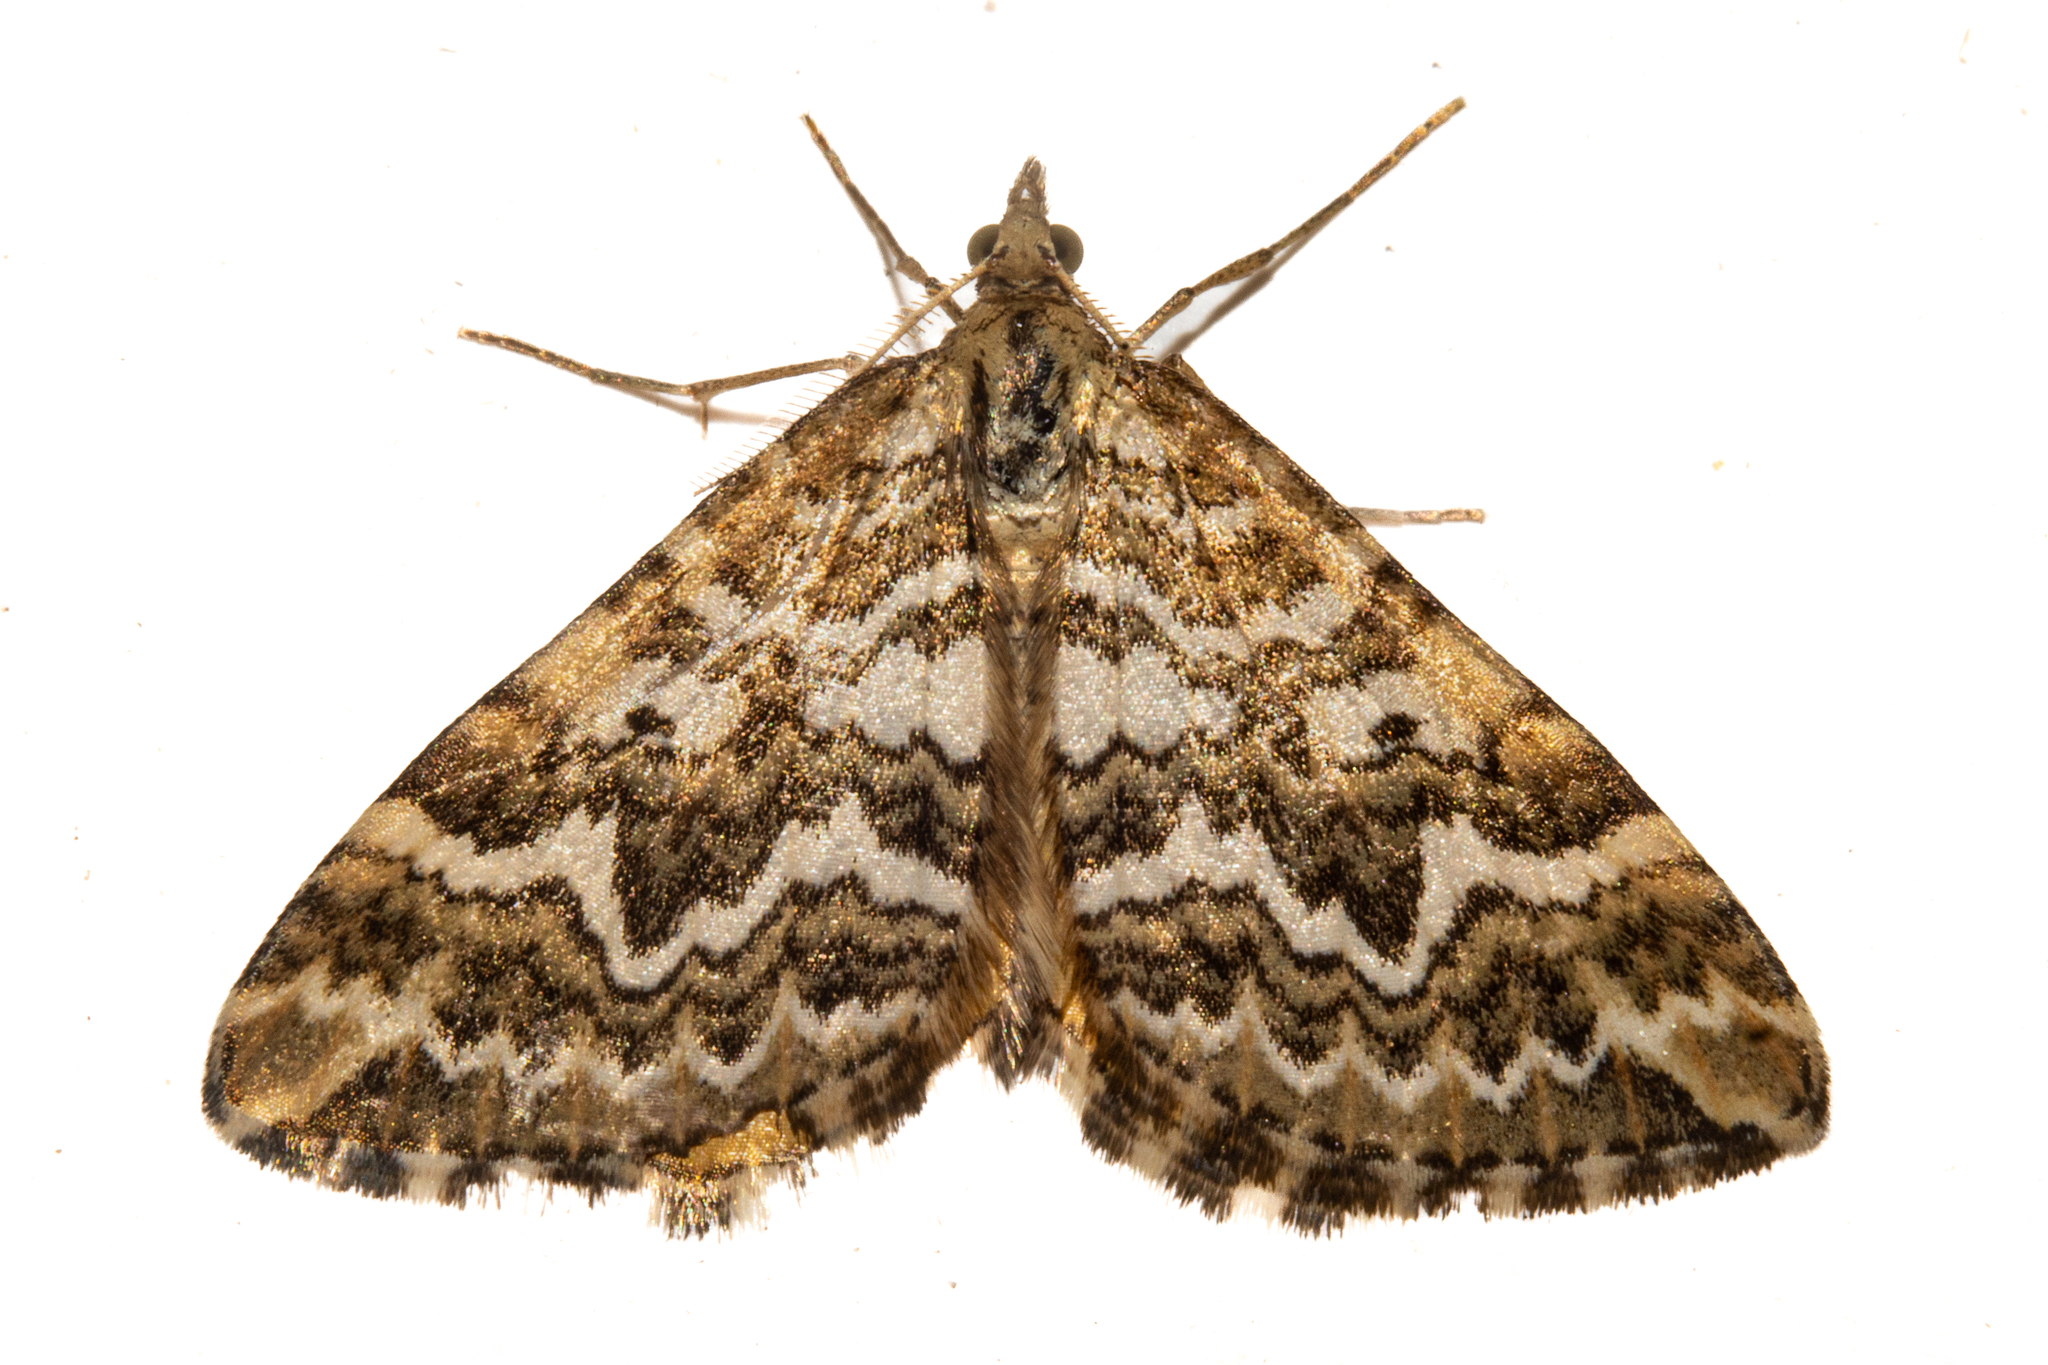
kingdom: Animalia
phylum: Arthropoda
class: Insecta
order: Lepidoptera
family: Geometridae
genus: Asaphodes
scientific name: Asaphodes clarata
